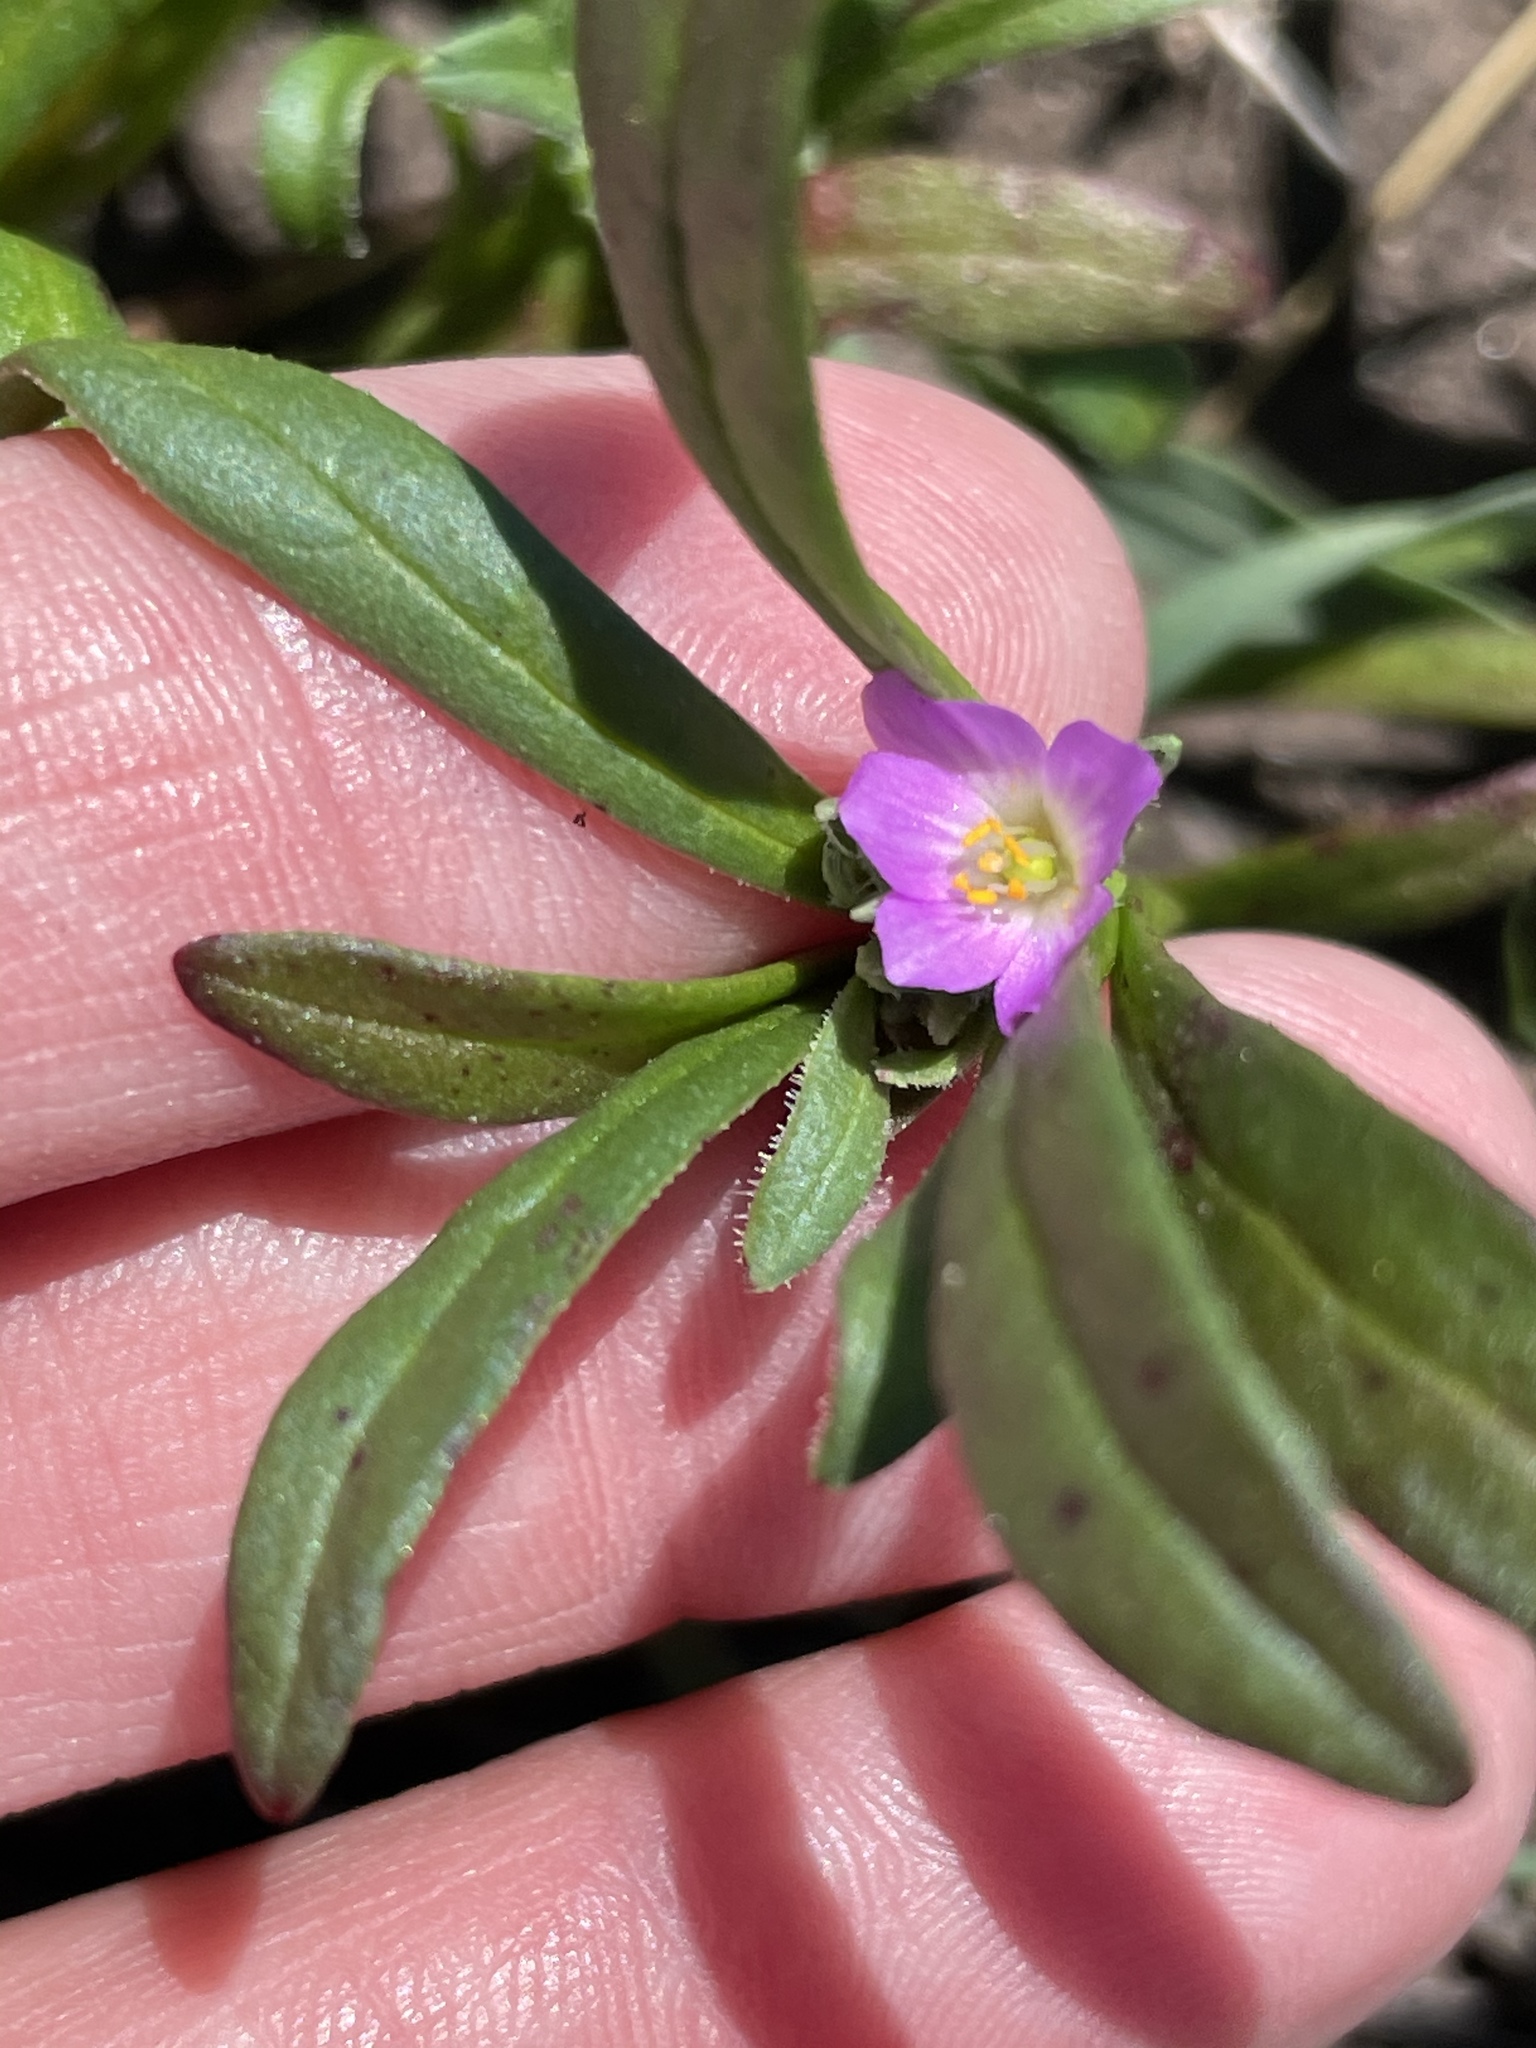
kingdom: Plantae
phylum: Tracheophyta
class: Magnoliopsida
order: Caryophyllales
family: Montiaceae
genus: Calandrinia
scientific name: Calandrinia menziesii
